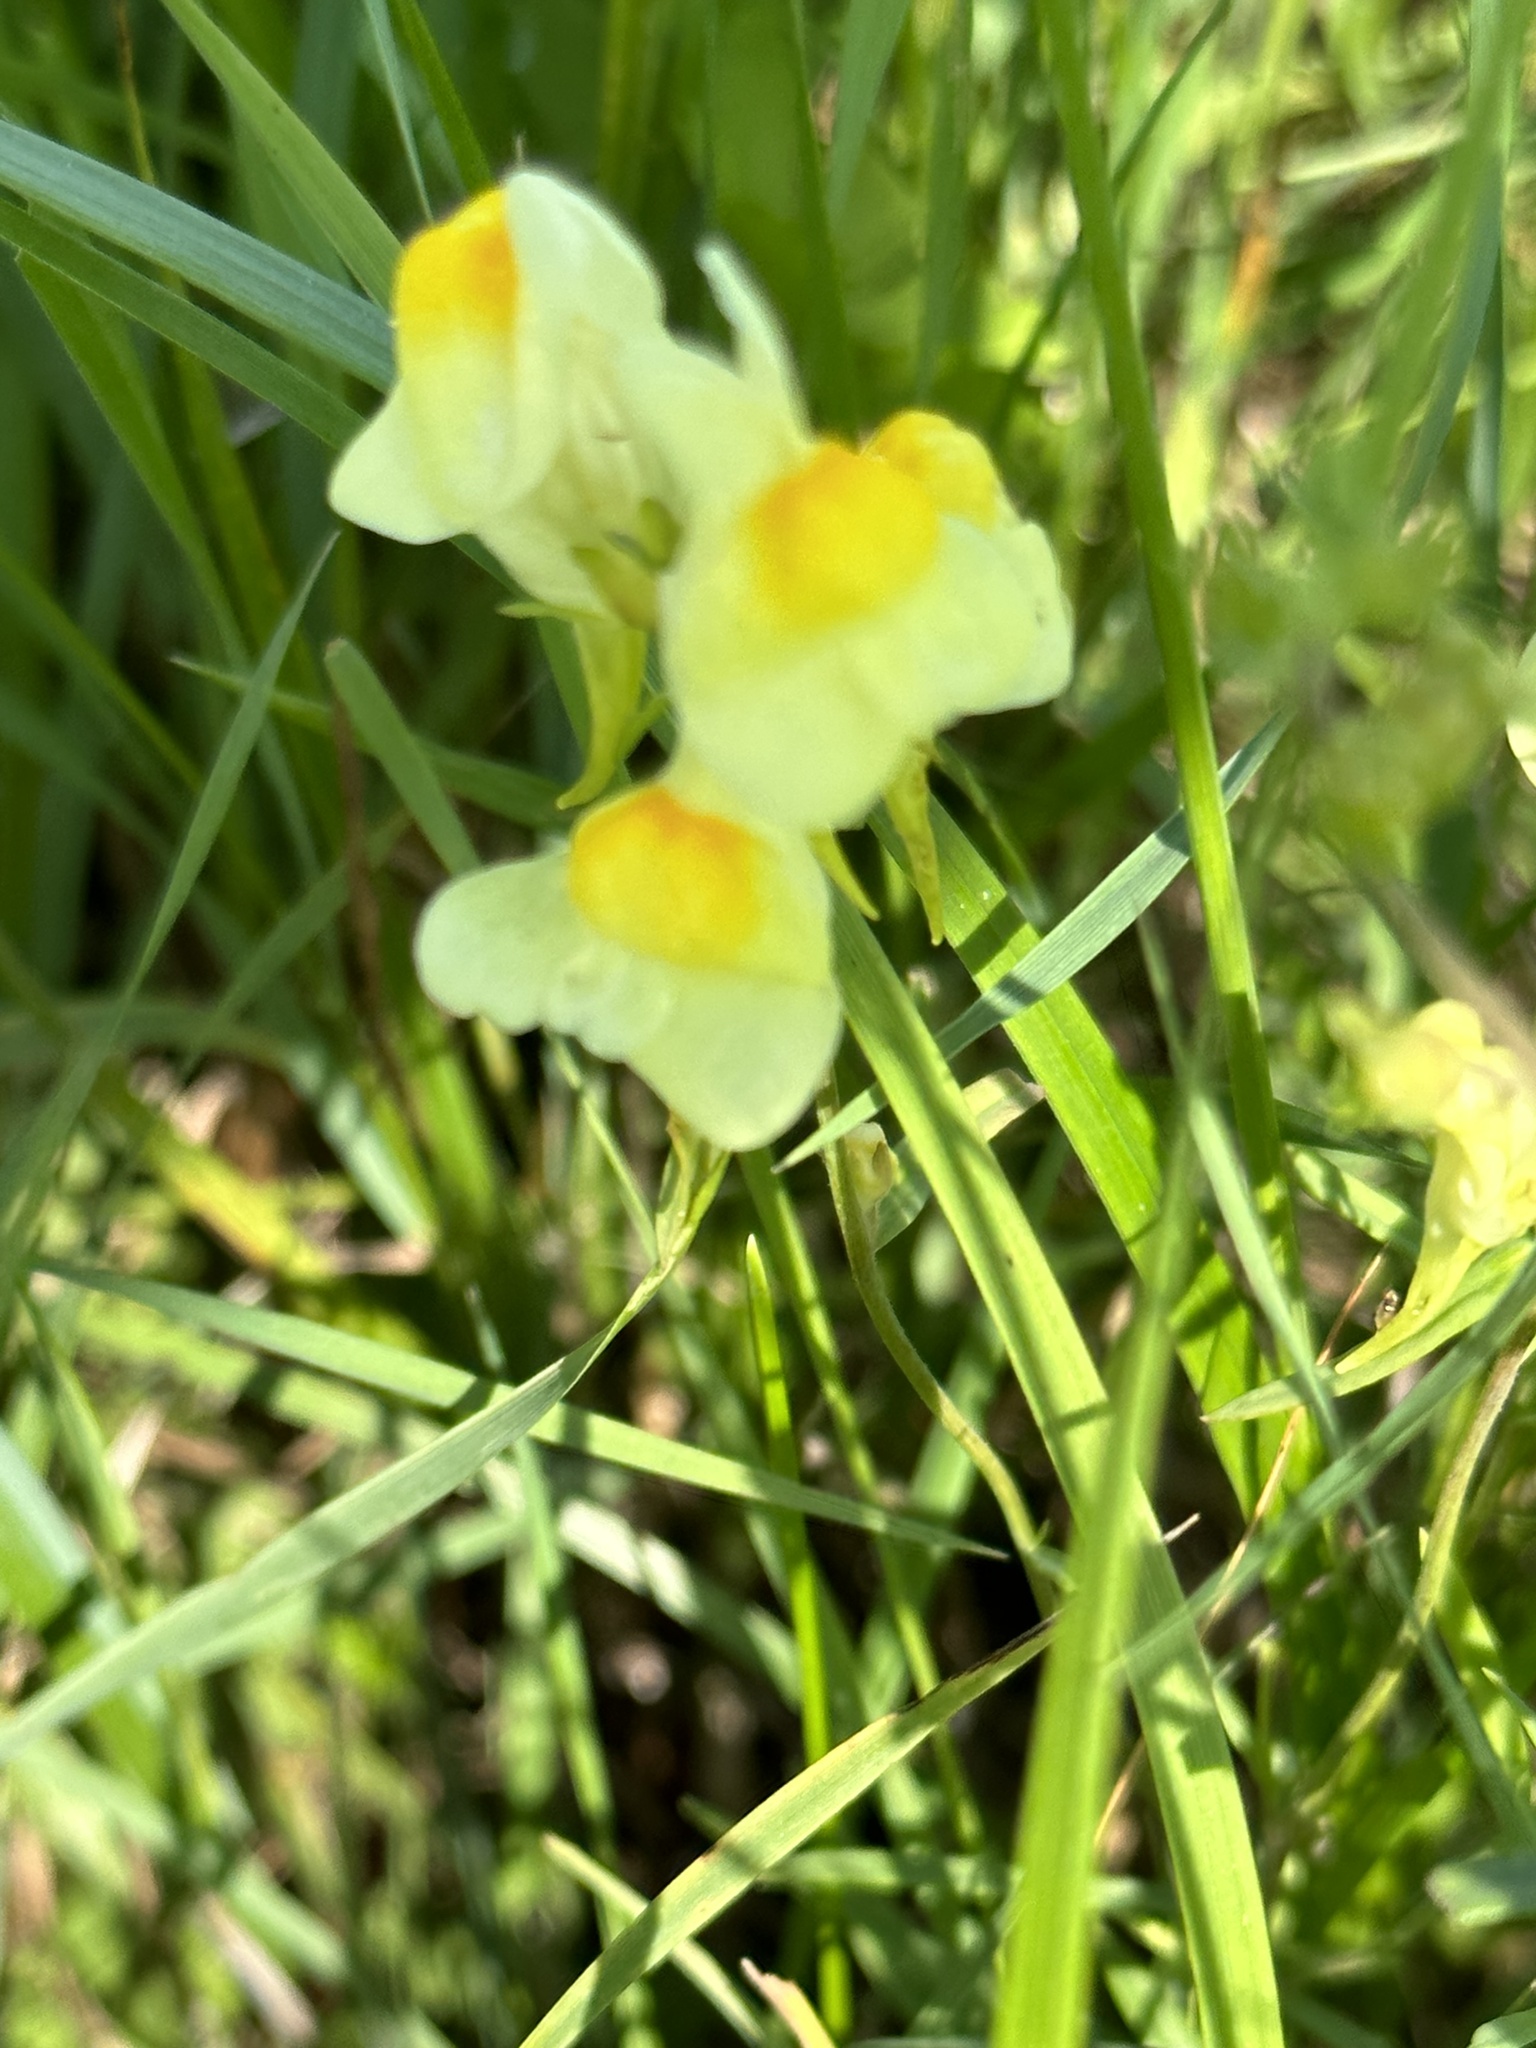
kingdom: Plantae
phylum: Tracheophyta
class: Magnoliopsida
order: Lamiales
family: Plantaginaceae
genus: Linaria
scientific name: Linaria vulgaris
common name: Butter and eggs
